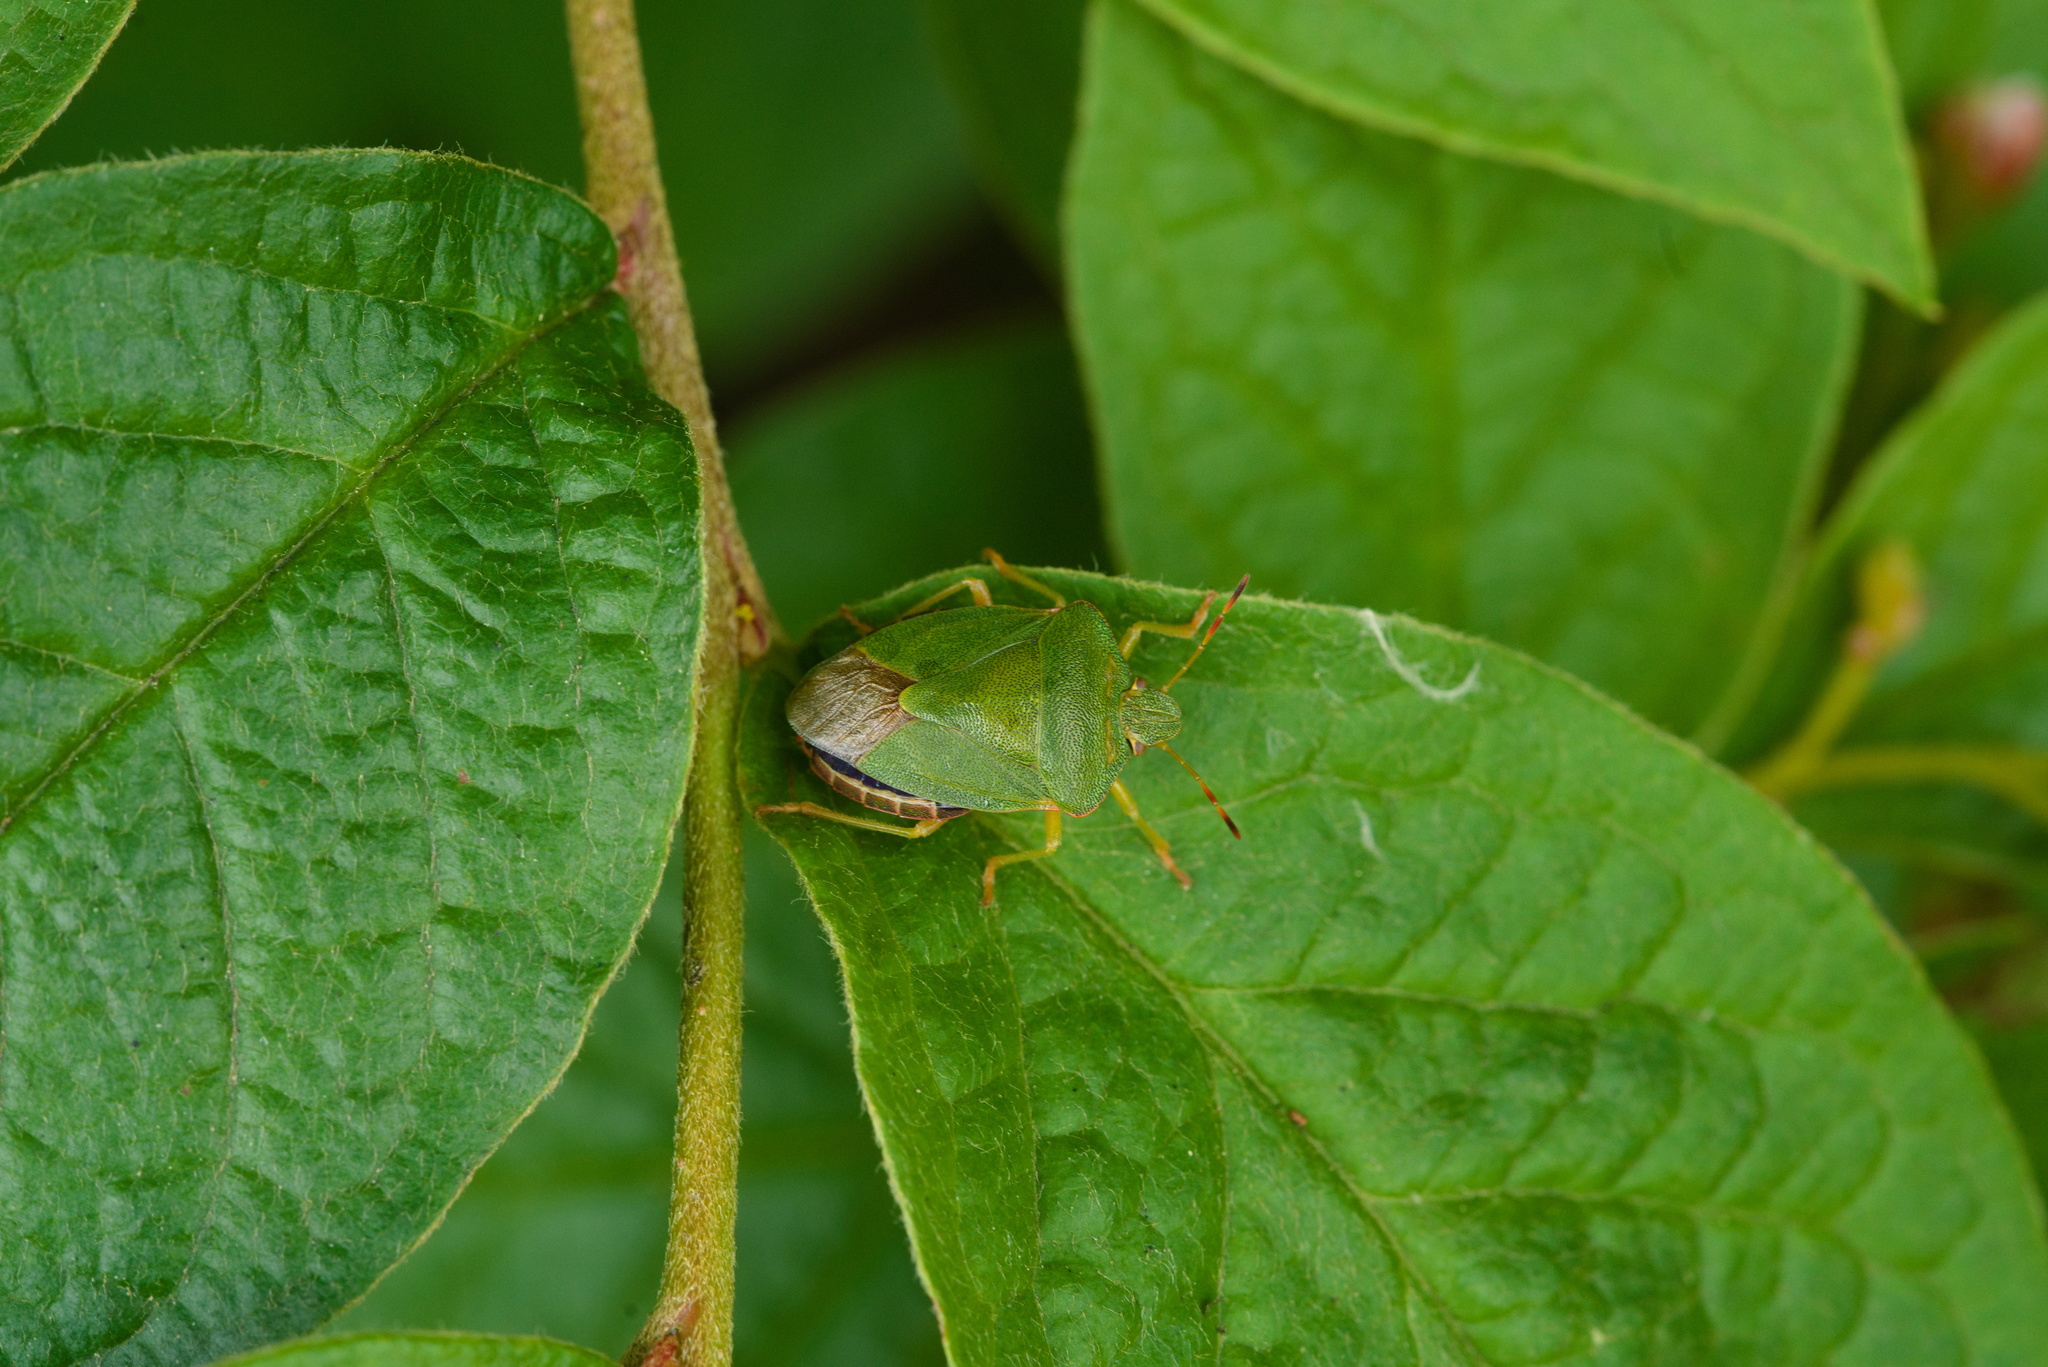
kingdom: Animalia
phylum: Arthropoda
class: Insecta
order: Hemiptera
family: Pentatomidae
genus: Palomena
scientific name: Palomena prasina
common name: Green shieldbug
